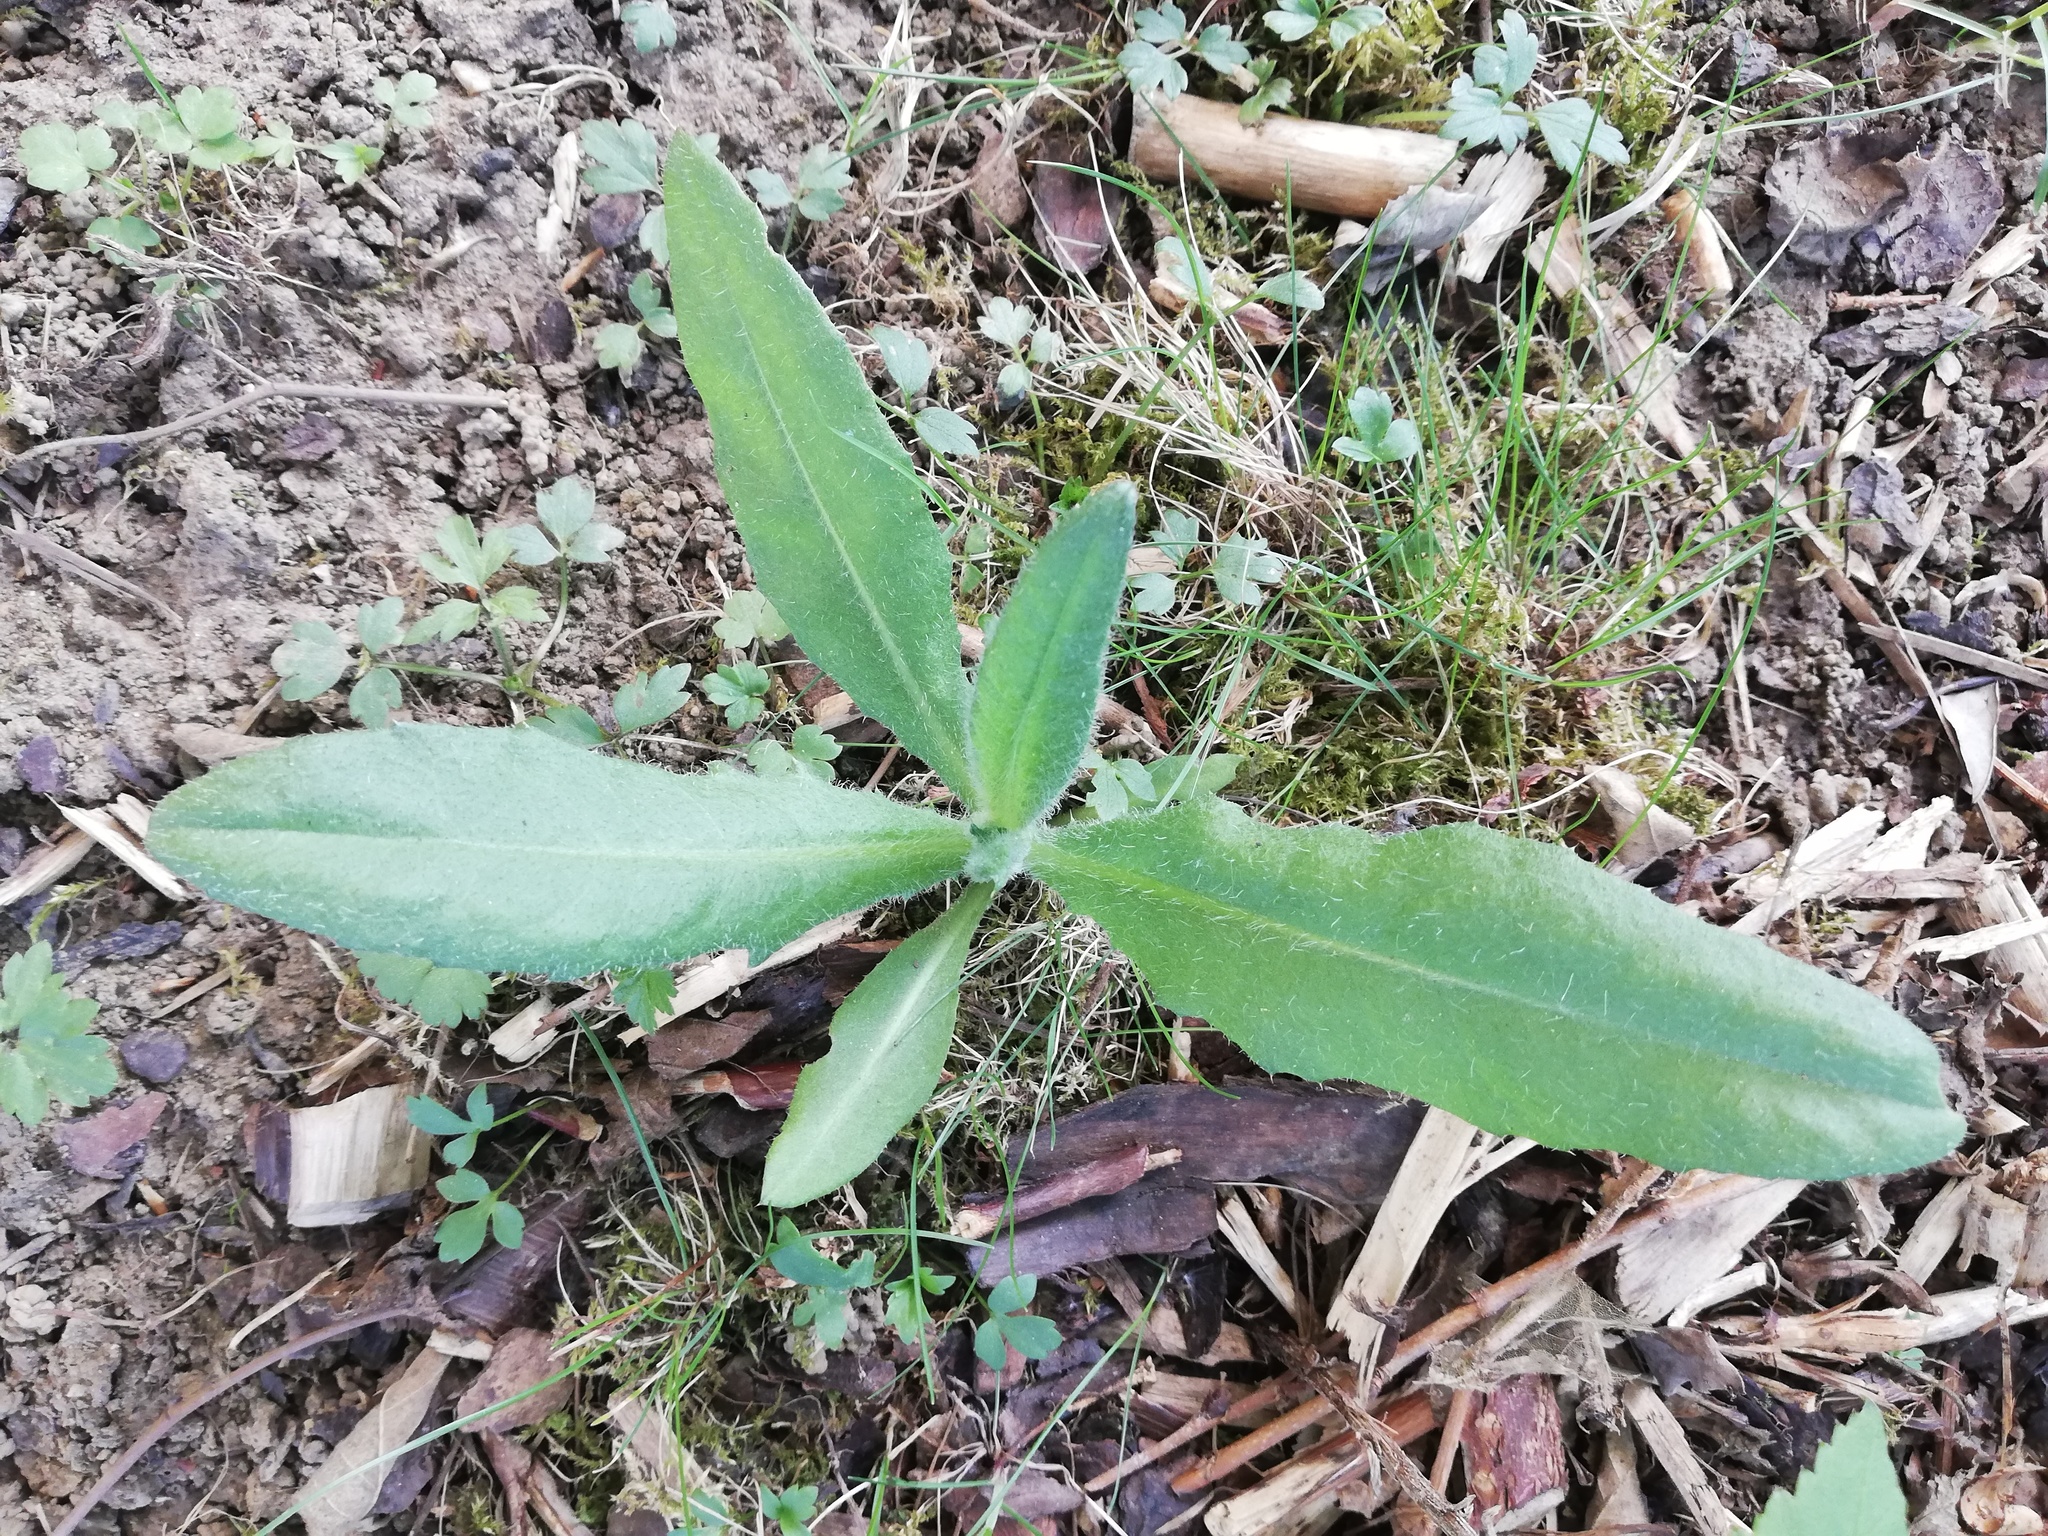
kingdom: Plantae
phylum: Tracheophyta
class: Magnoliopsida
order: Asterales
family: Asteraceae
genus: Cirsium
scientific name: Cirsium arvense
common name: Creeping thistle
